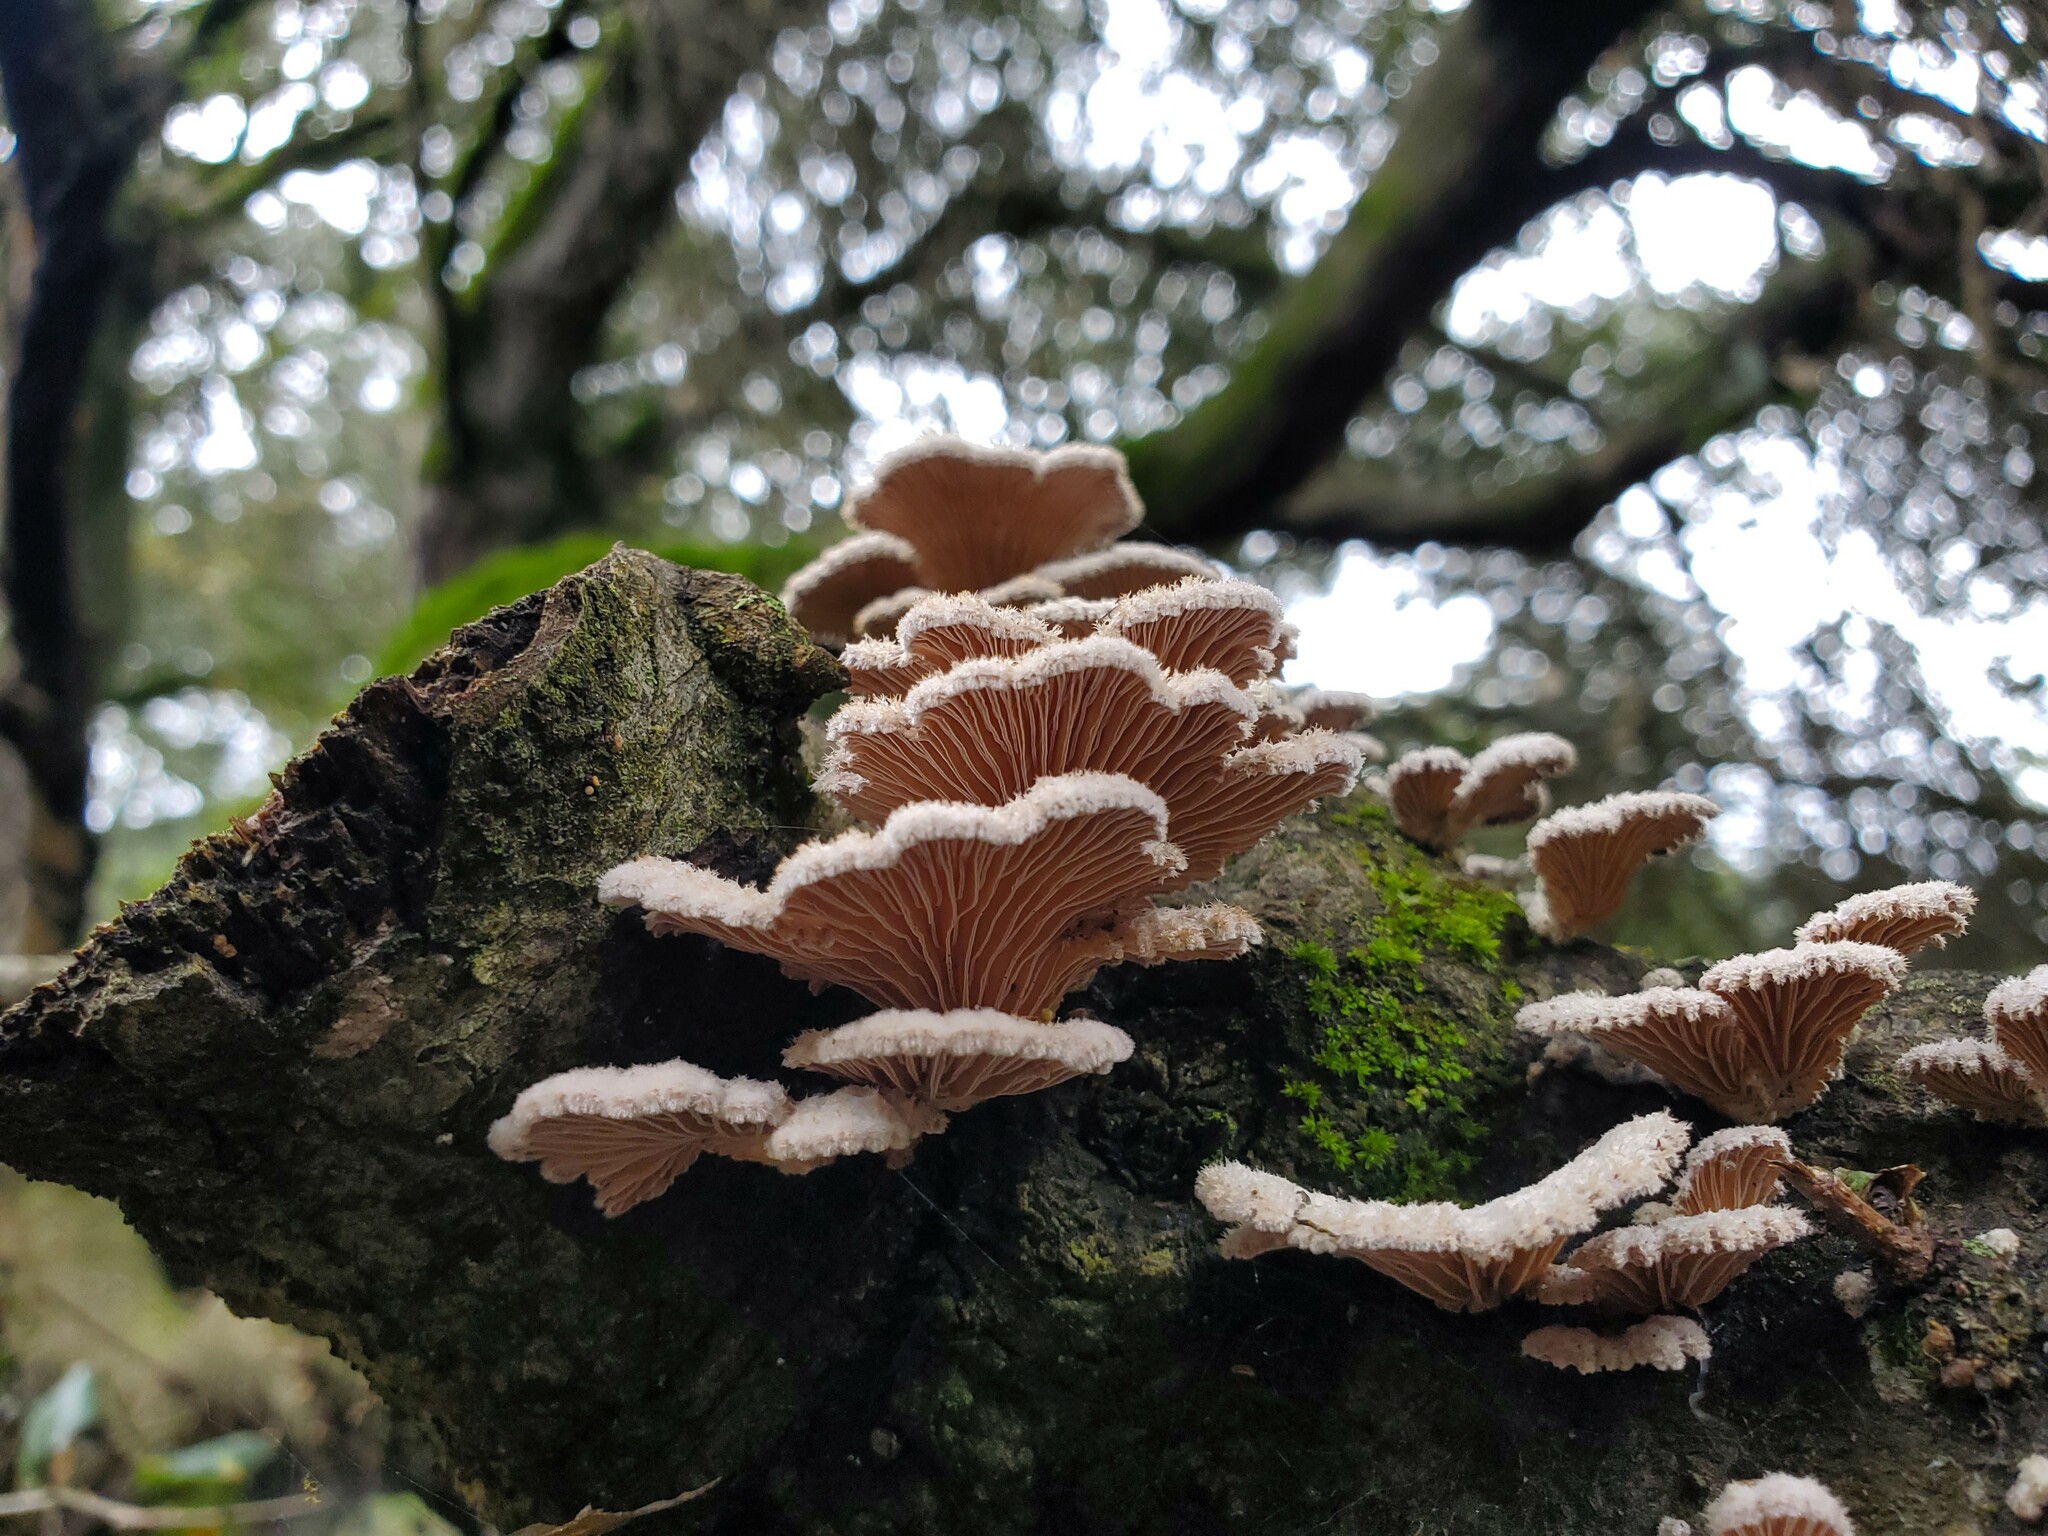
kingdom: Fungi
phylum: Basidiomycota
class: Agaricomycetes
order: Agaricales
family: Schizophyllaceae
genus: Schizophyllum
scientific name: Schizophyllum commune
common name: Common porecrust
